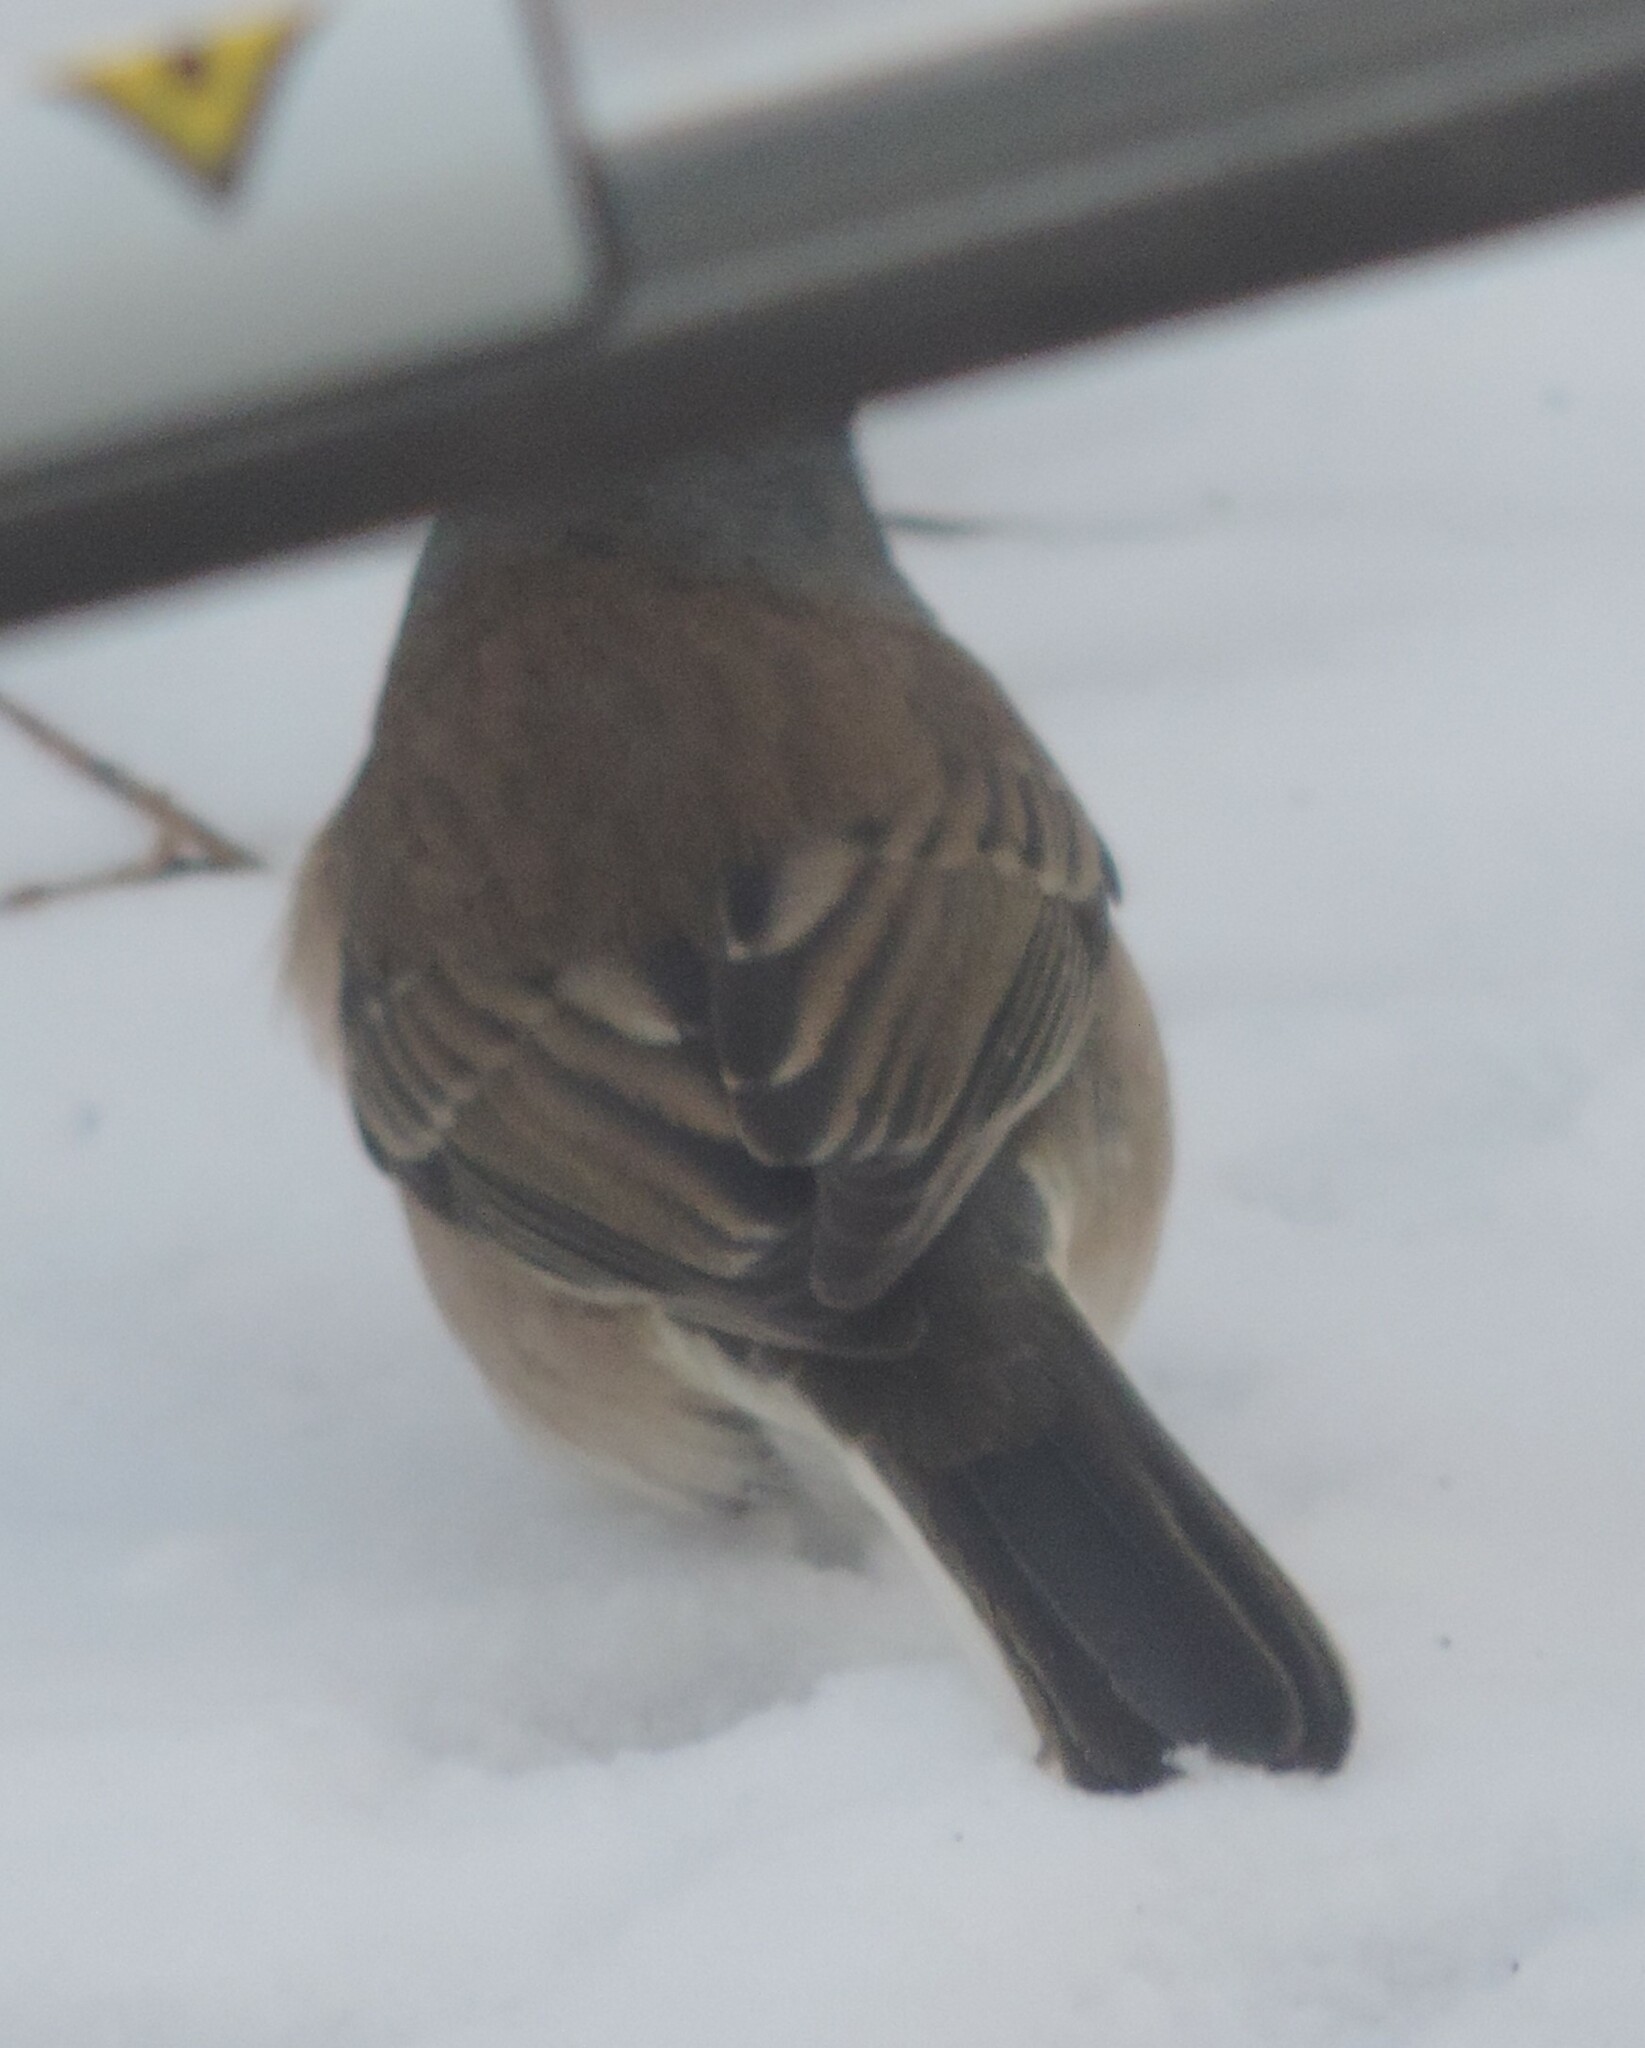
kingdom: Animalia
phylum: Chordata
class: Aves
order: Passeriformes
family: Passerellidae
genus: Junco
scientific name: Junco hyemalis
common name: Dark-eyed junco
